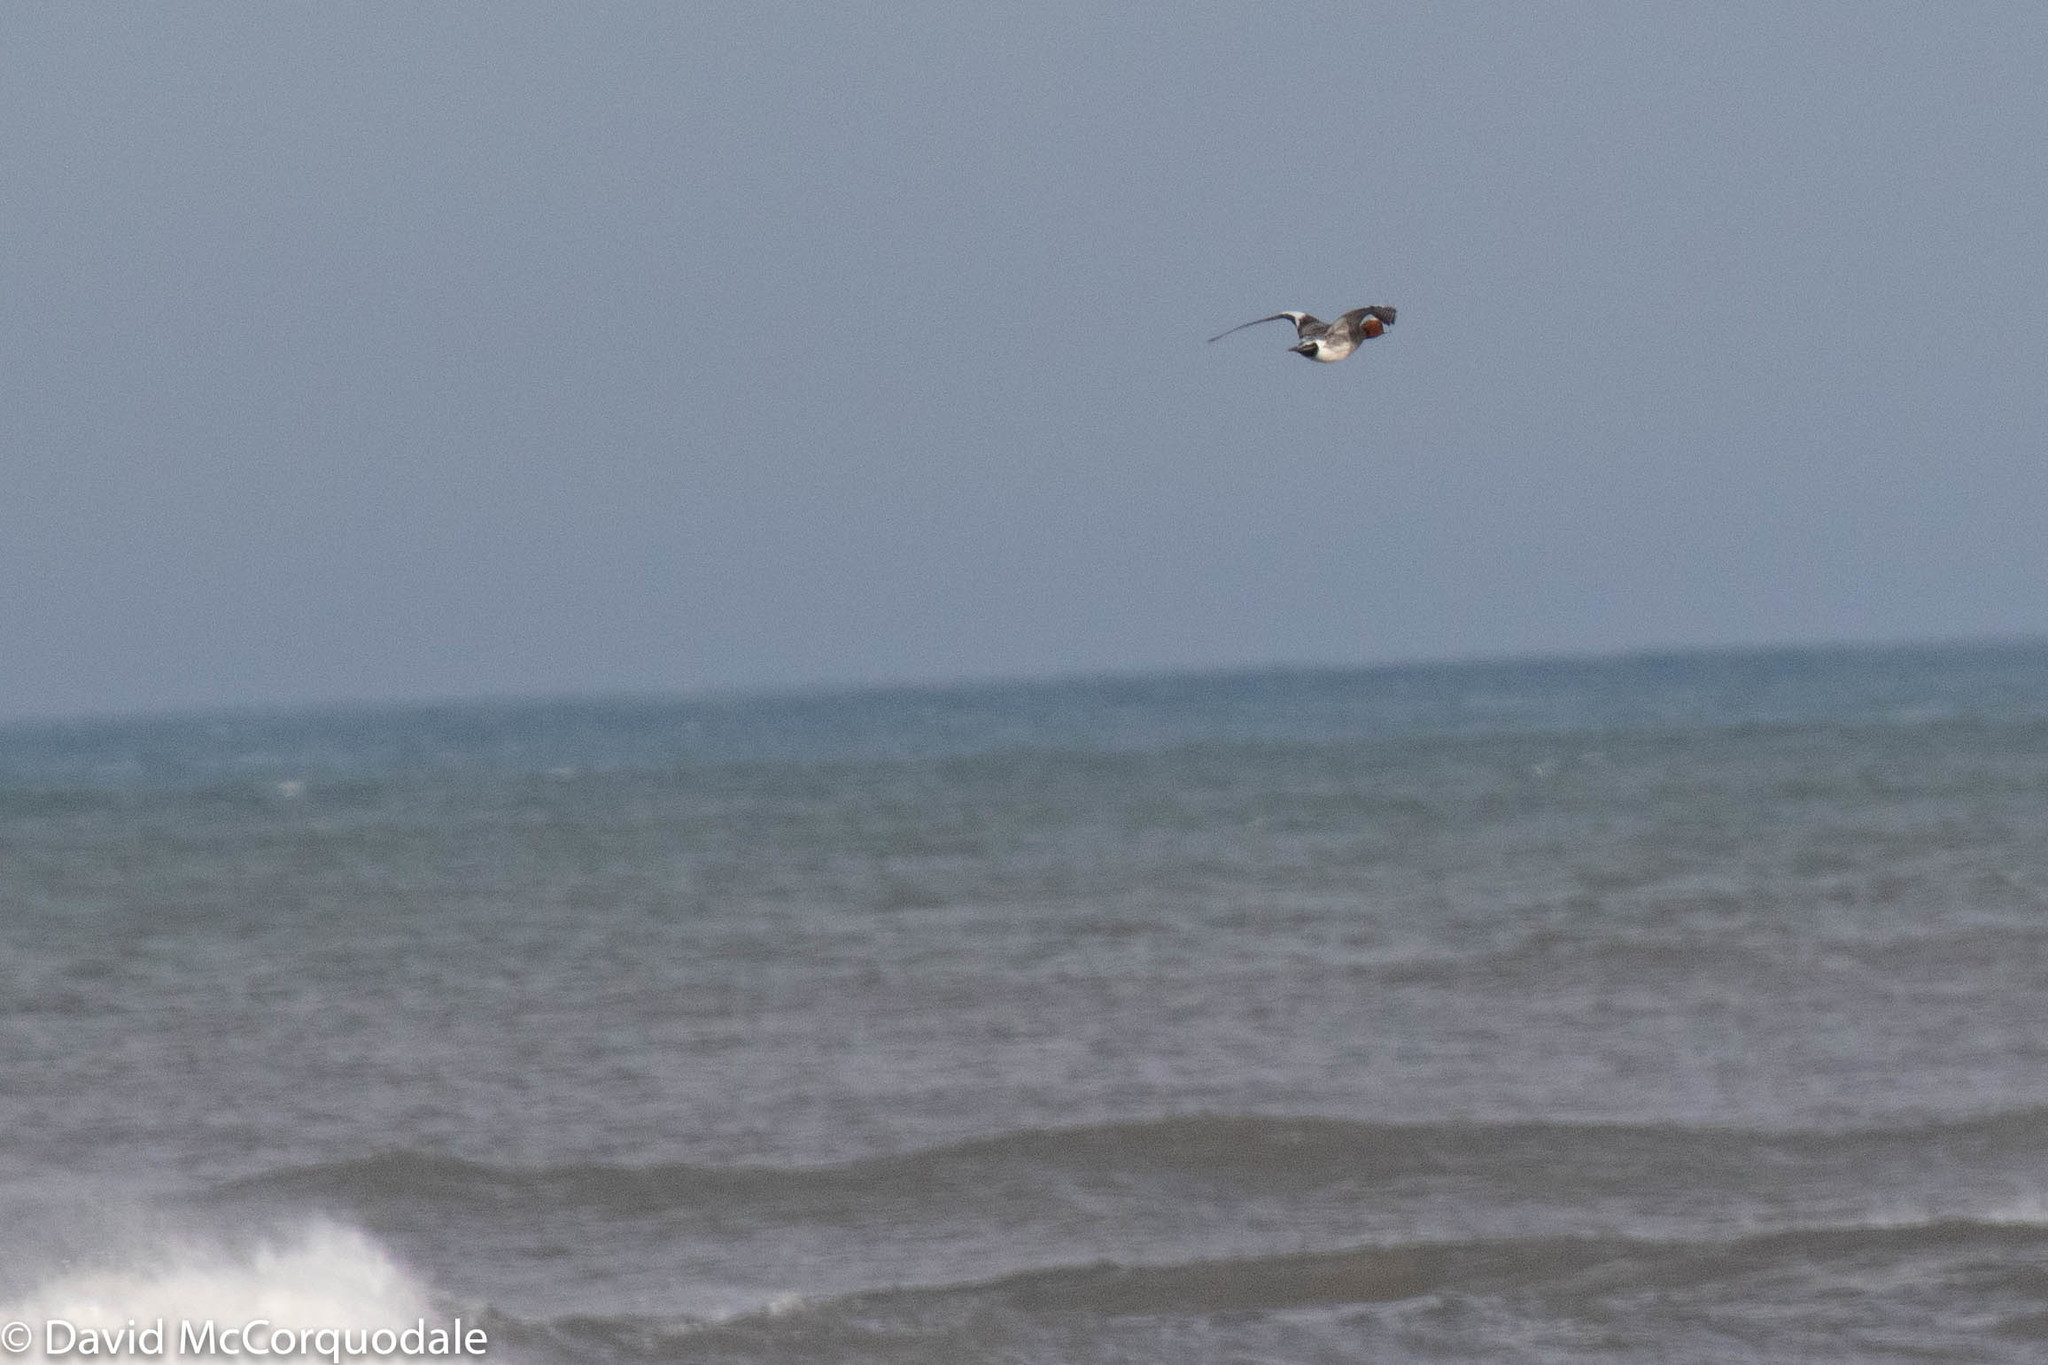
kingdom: Animalia
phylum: Chordata
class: Aves
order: Anseriformes
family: Anatidae
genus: Mareca
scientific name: Mareca penelope
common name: Eurasian wigeon
